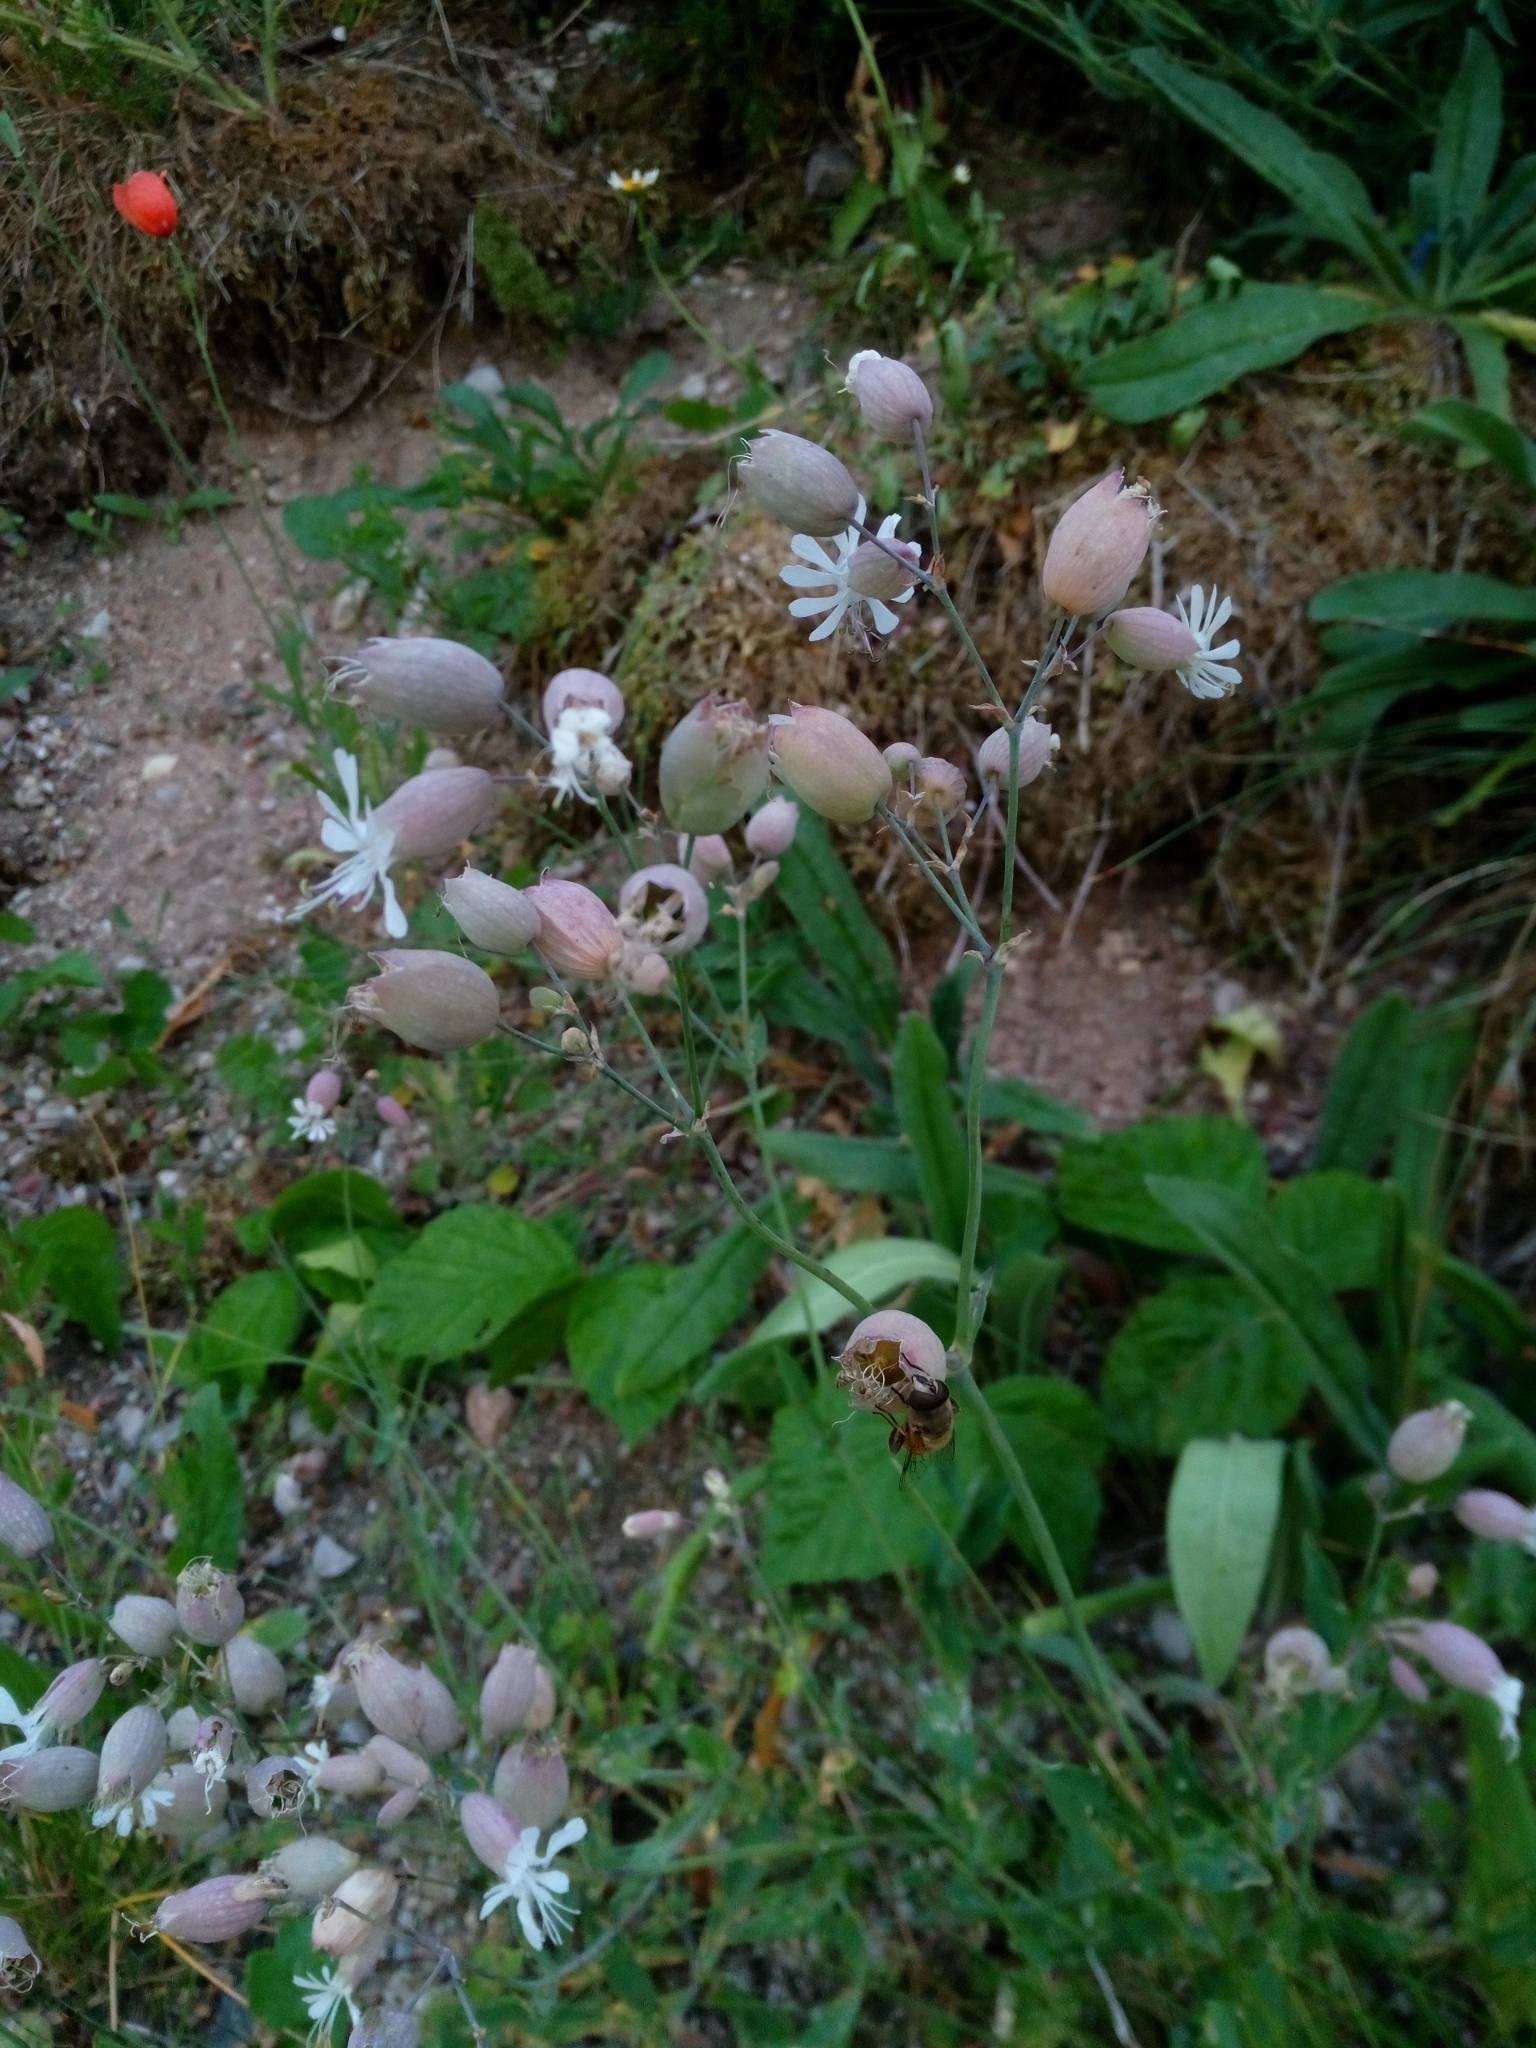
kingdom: Plantae
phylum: Tracheophyta
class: Magnoliopsida
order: Caryophyllales
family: Caryophyllaceae
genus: Silene
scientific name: Silene vulgaris
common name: Bladder campion
